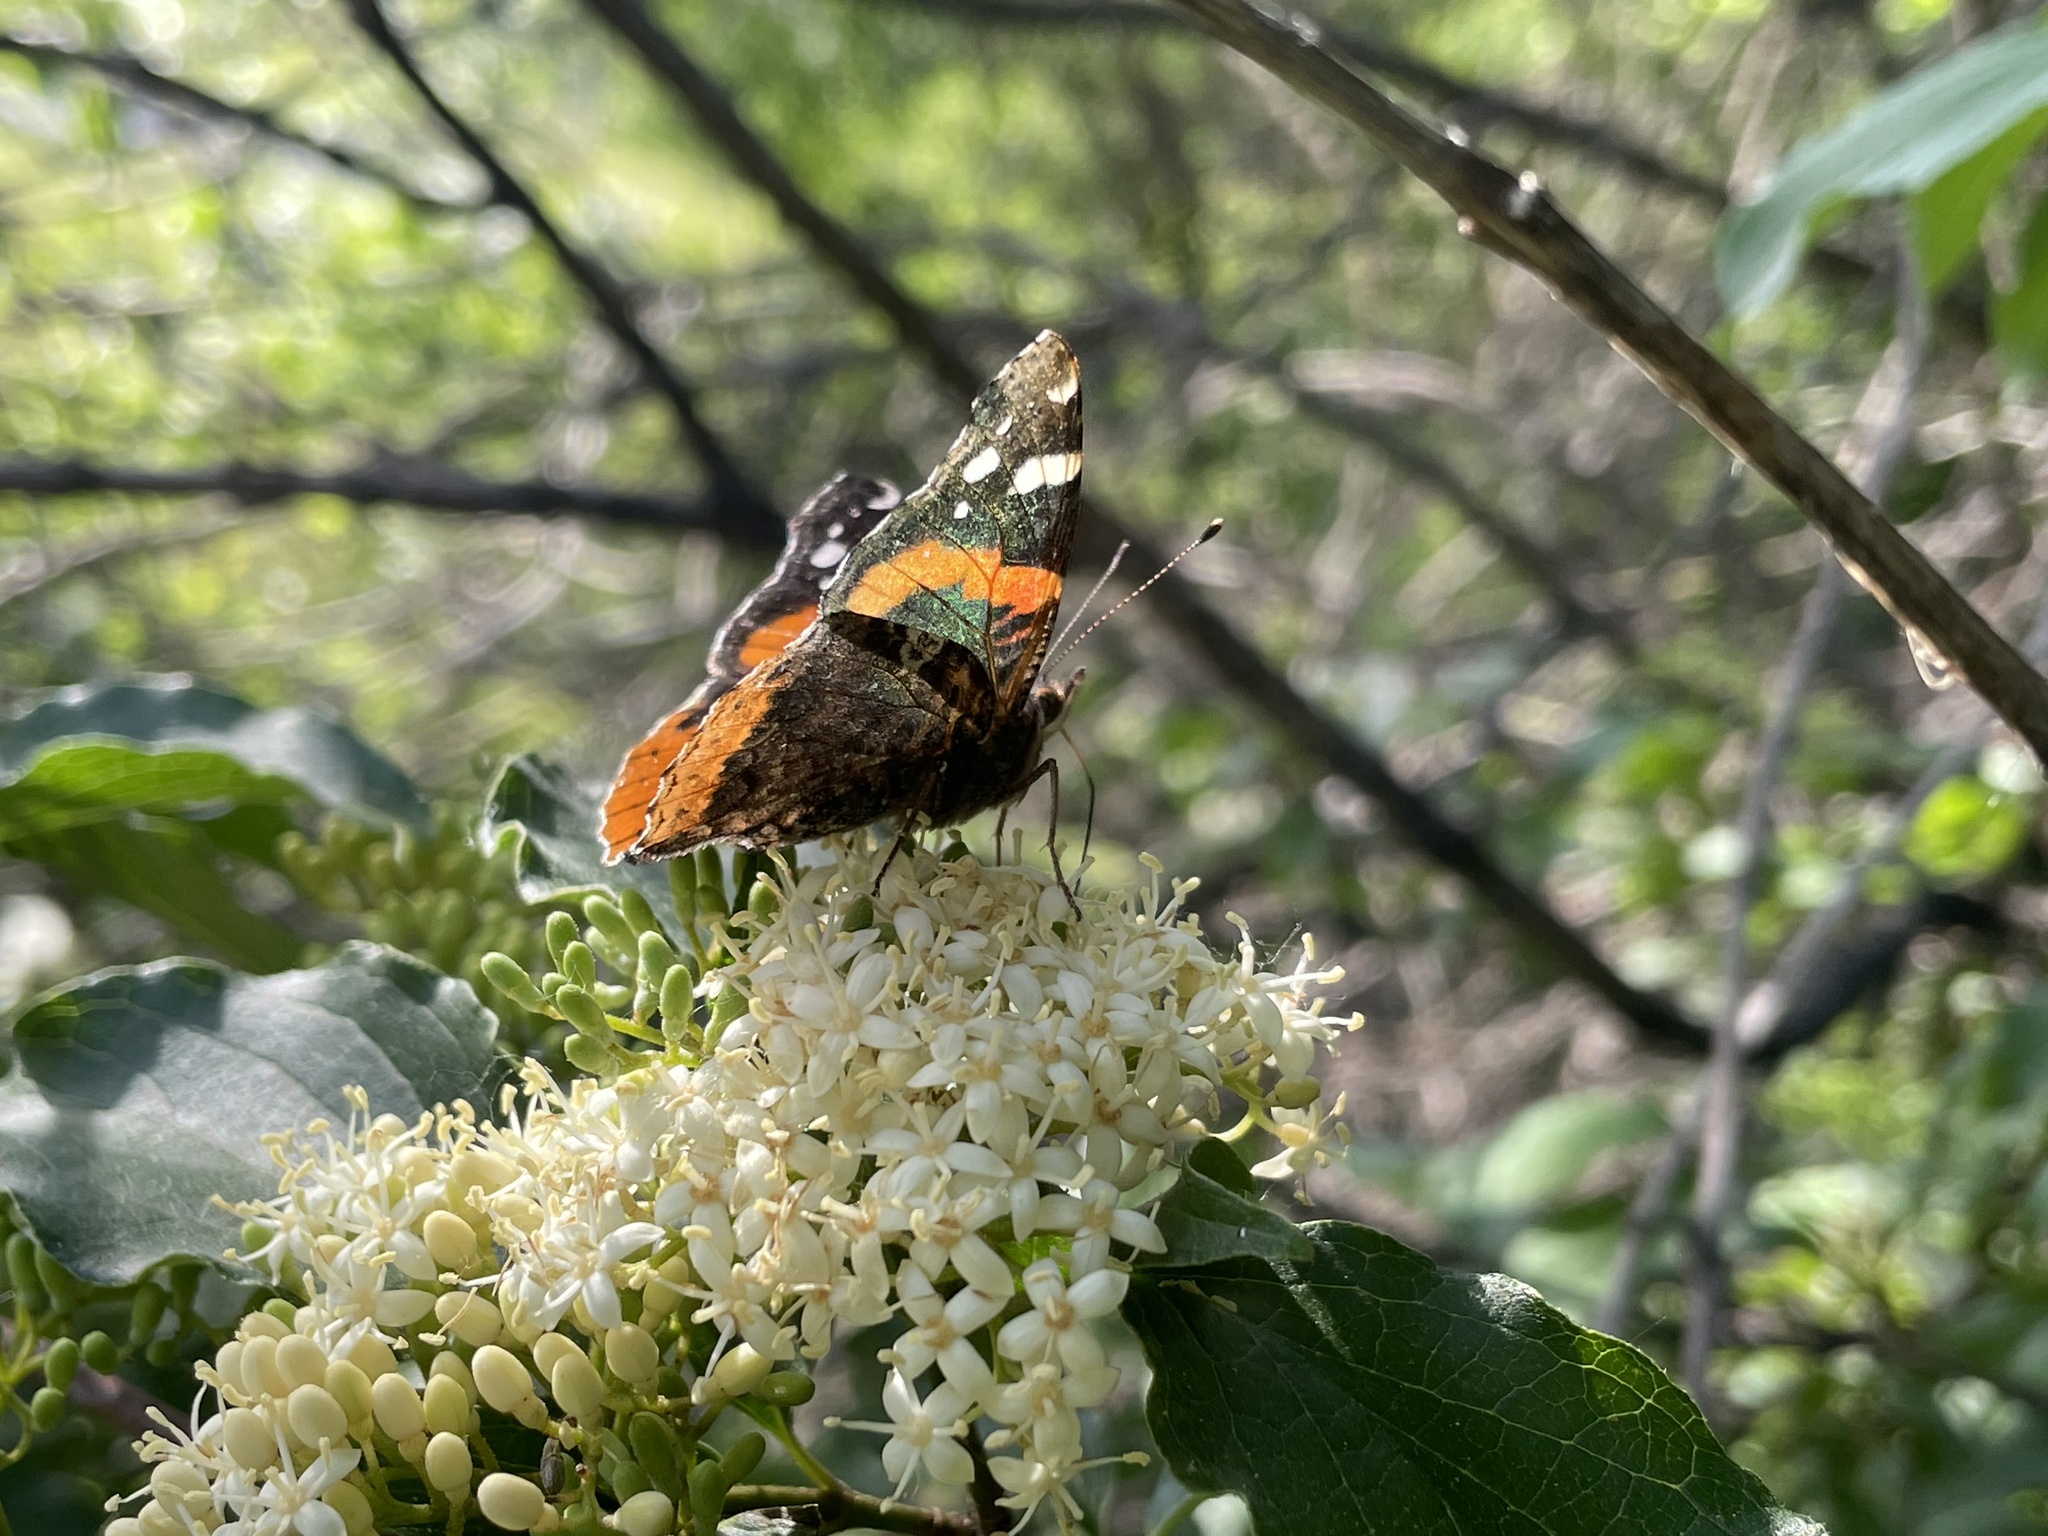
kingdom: Animalia
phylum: Arthropoda
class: Insecta
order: Lepidoptera
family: Nymphalidae
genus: Vanessa
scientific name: Vanessa atalanta
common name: Red admiral
